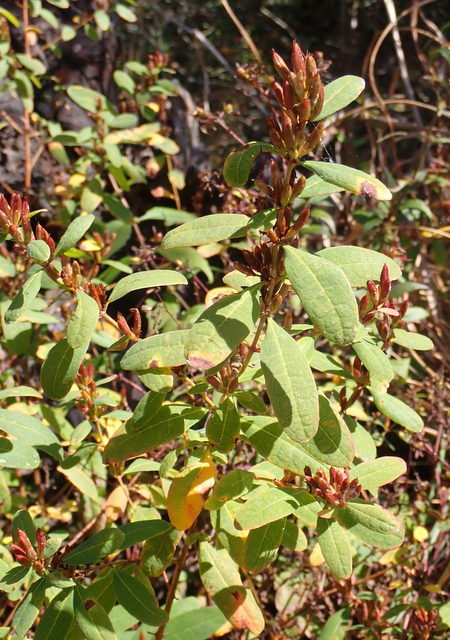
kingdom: Plantae
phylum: Tracheophyta
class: Magnoliopsida
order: Malpighiales
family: Hypericaceae
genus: Triadenum
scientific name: Triadenum walteri
